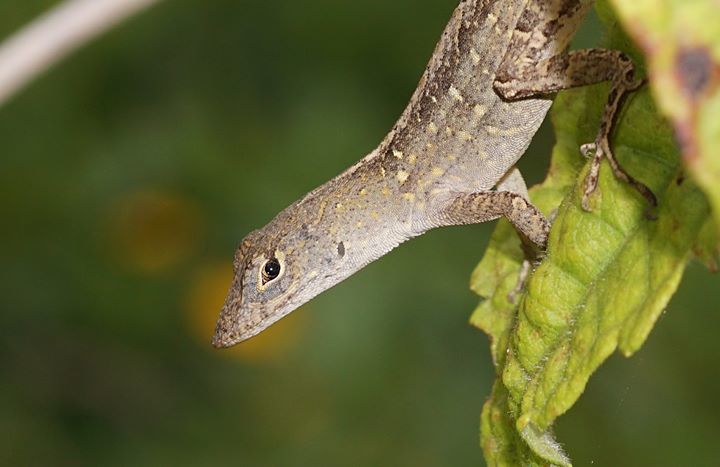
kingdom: Animalia
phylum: Chordata
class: Squamata
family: Dactyloidae
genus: Anolis
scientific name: Anolis sagrei
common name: Brown anole
